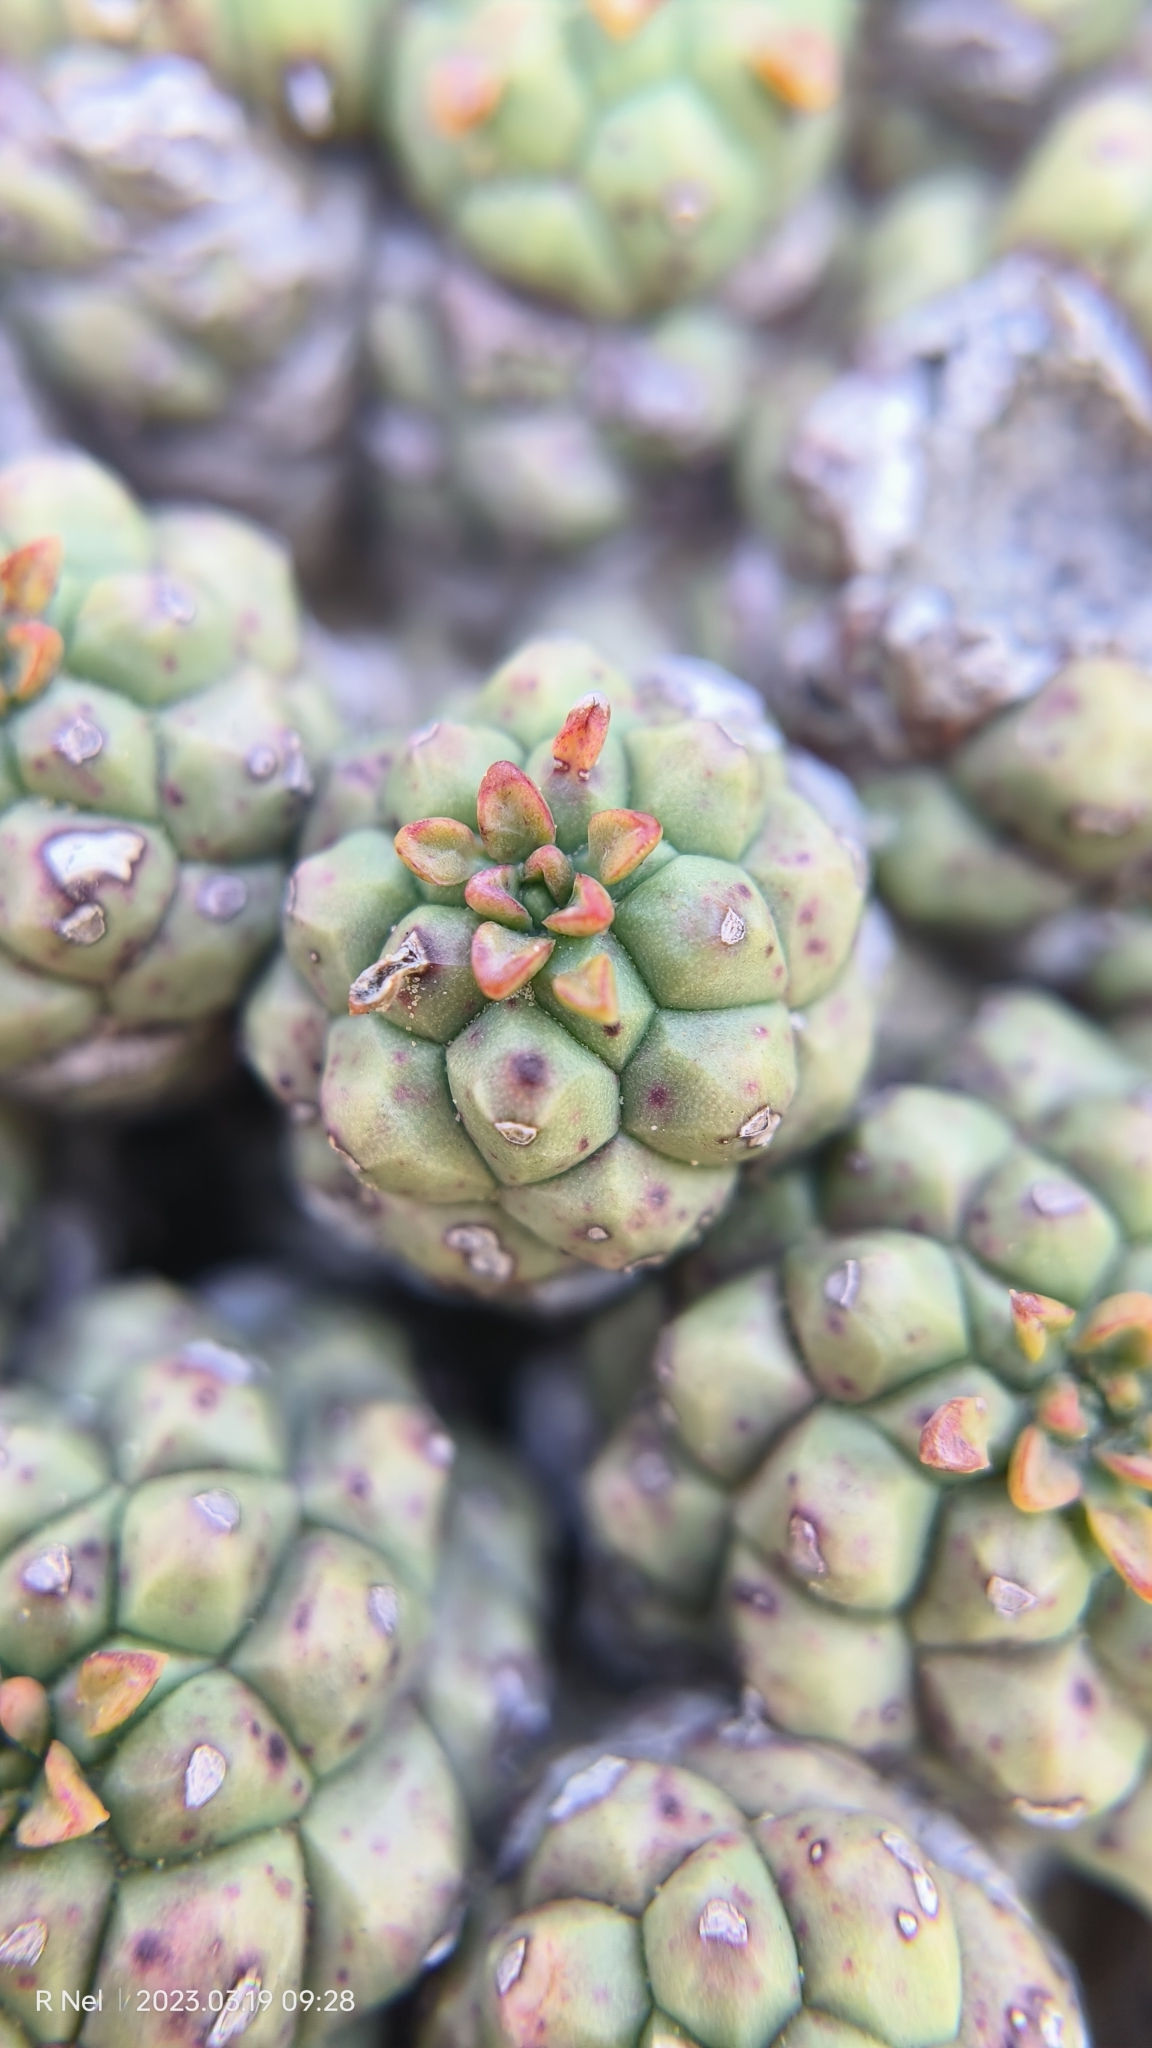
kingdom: Plantae
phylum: Tracheophyta
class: Magnoliopsida
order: Malpighiales
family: Euphorbiaceae
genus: Euphorbia
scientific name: Euphorbia clavarioides
